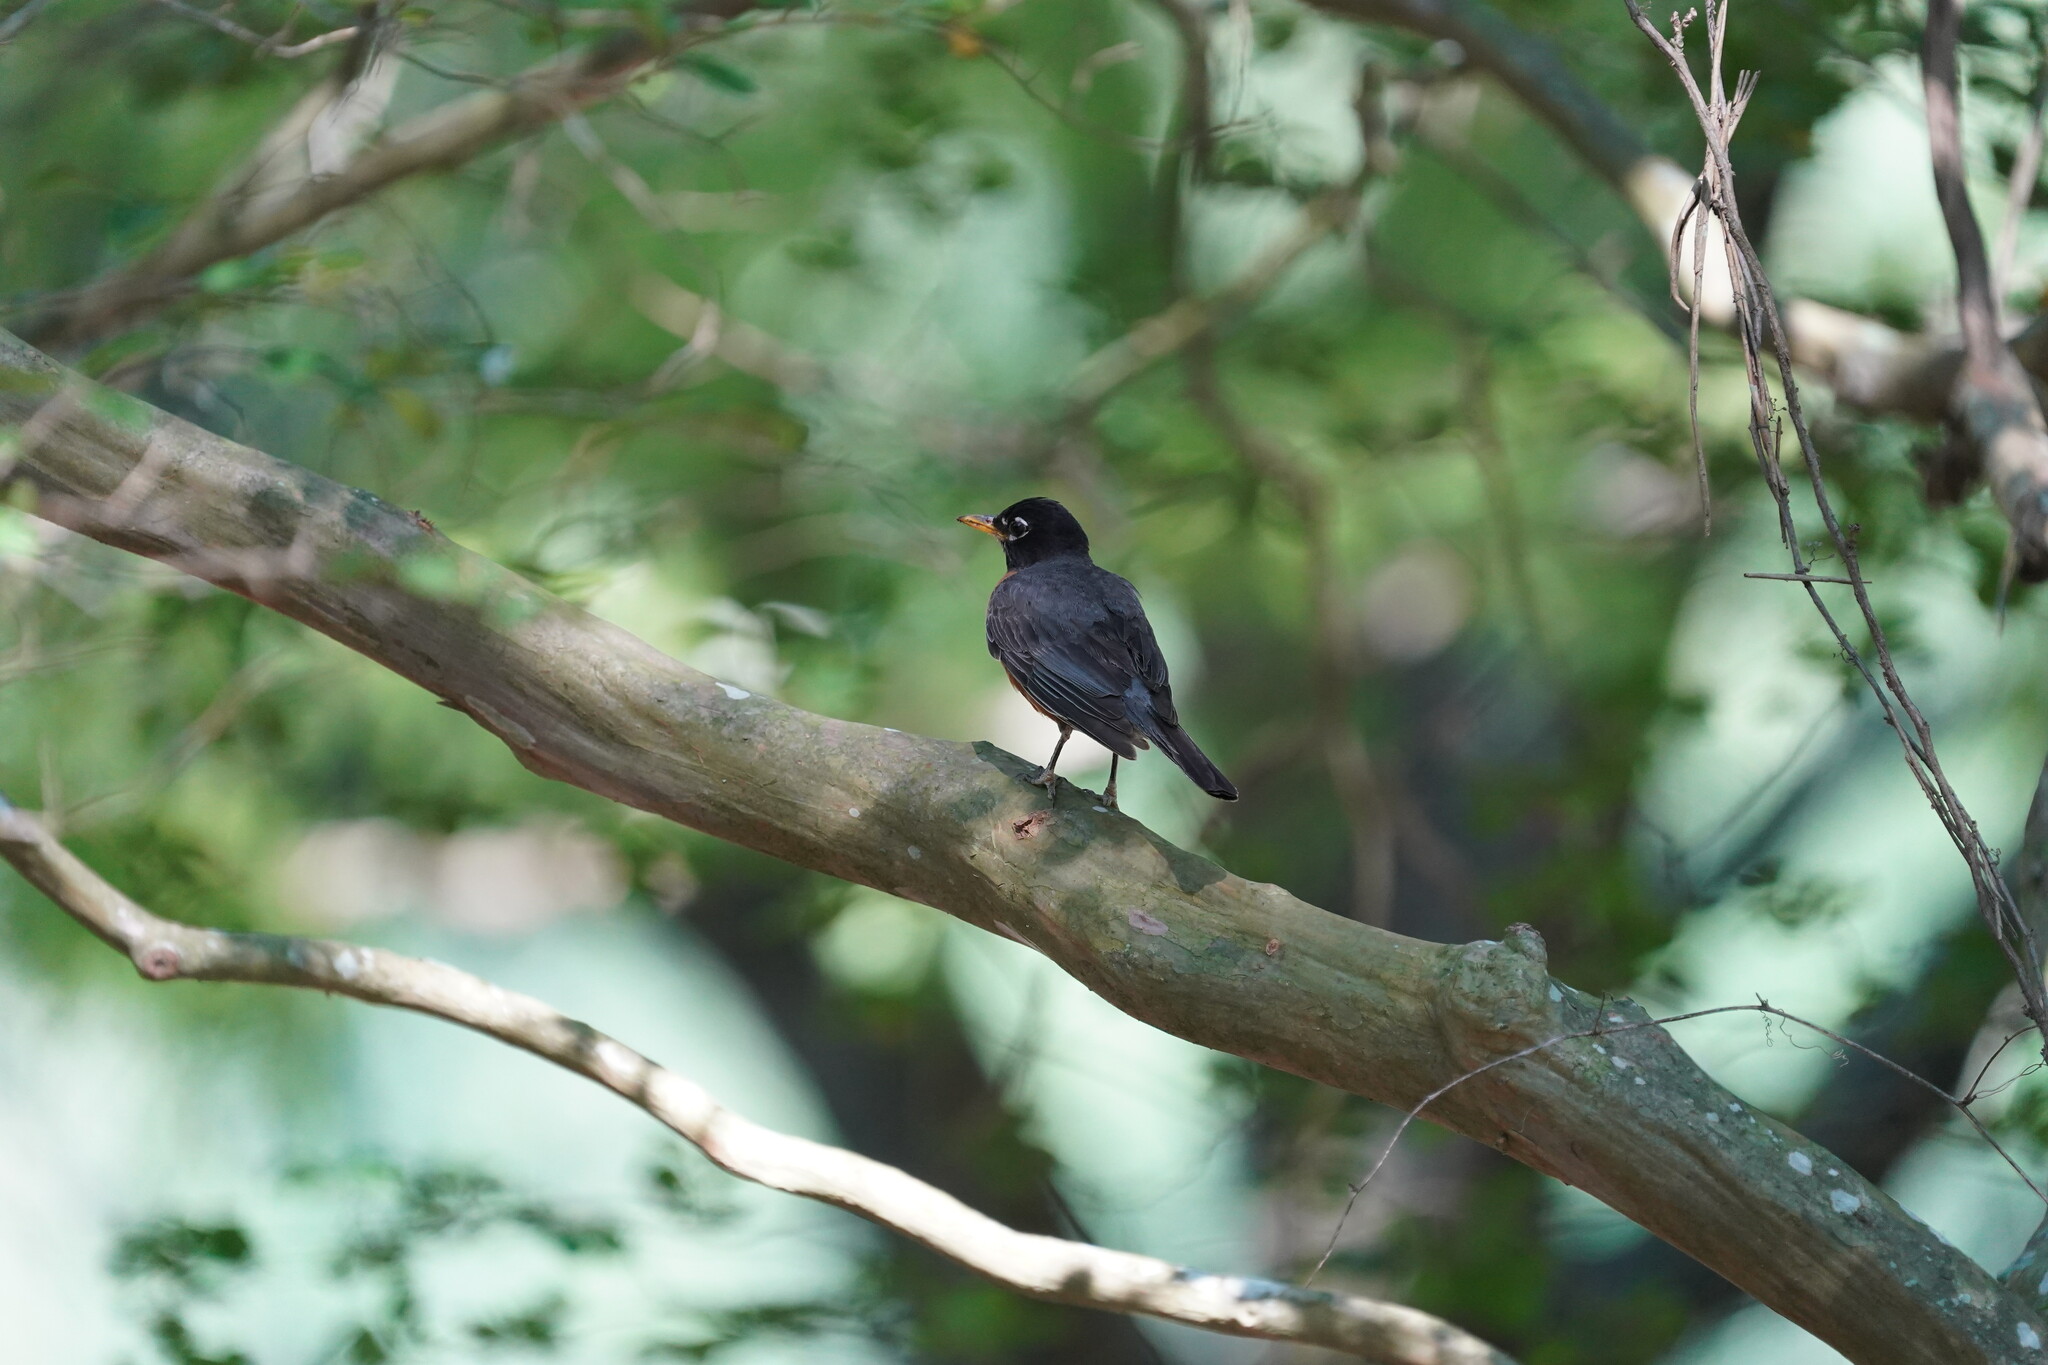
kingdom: Animalia
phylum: Chordata
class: Aves
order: Passeriformes
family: Turdidae
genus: Turdus
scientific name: Turdus migratorius
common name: American robin
